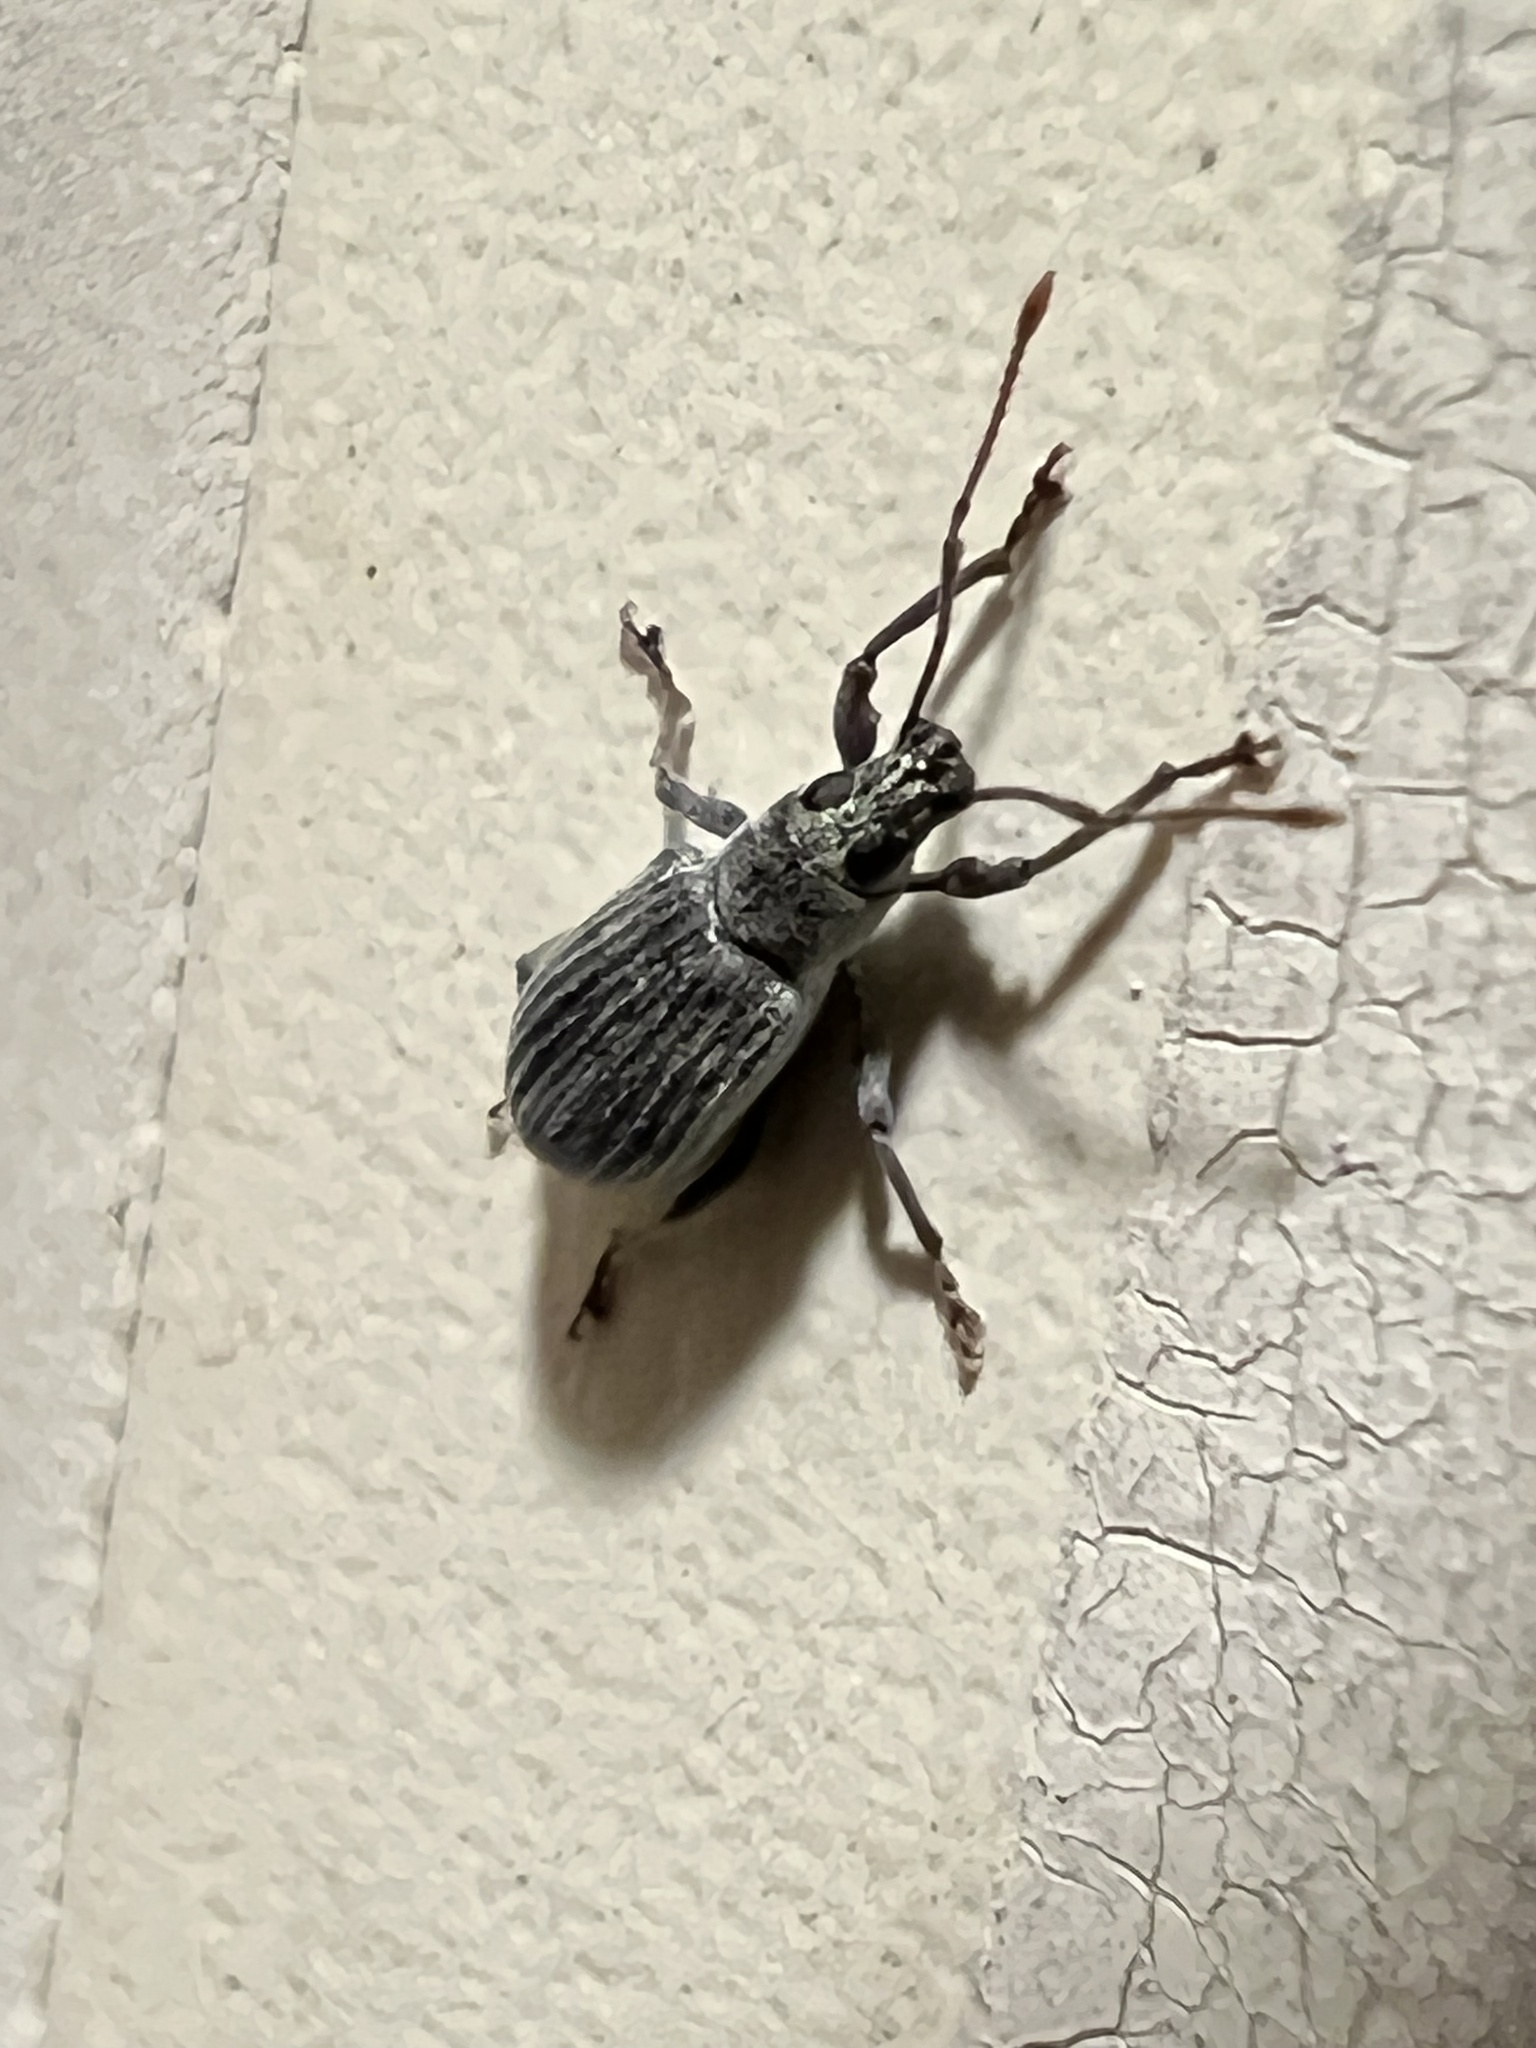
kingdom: Animalia
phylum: Arthropoda
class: Insecta
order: Coleoptera
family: Curculionidae
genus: Cyrtepistomus
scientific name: Cyrtepistomus castaneus
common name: Weevil
